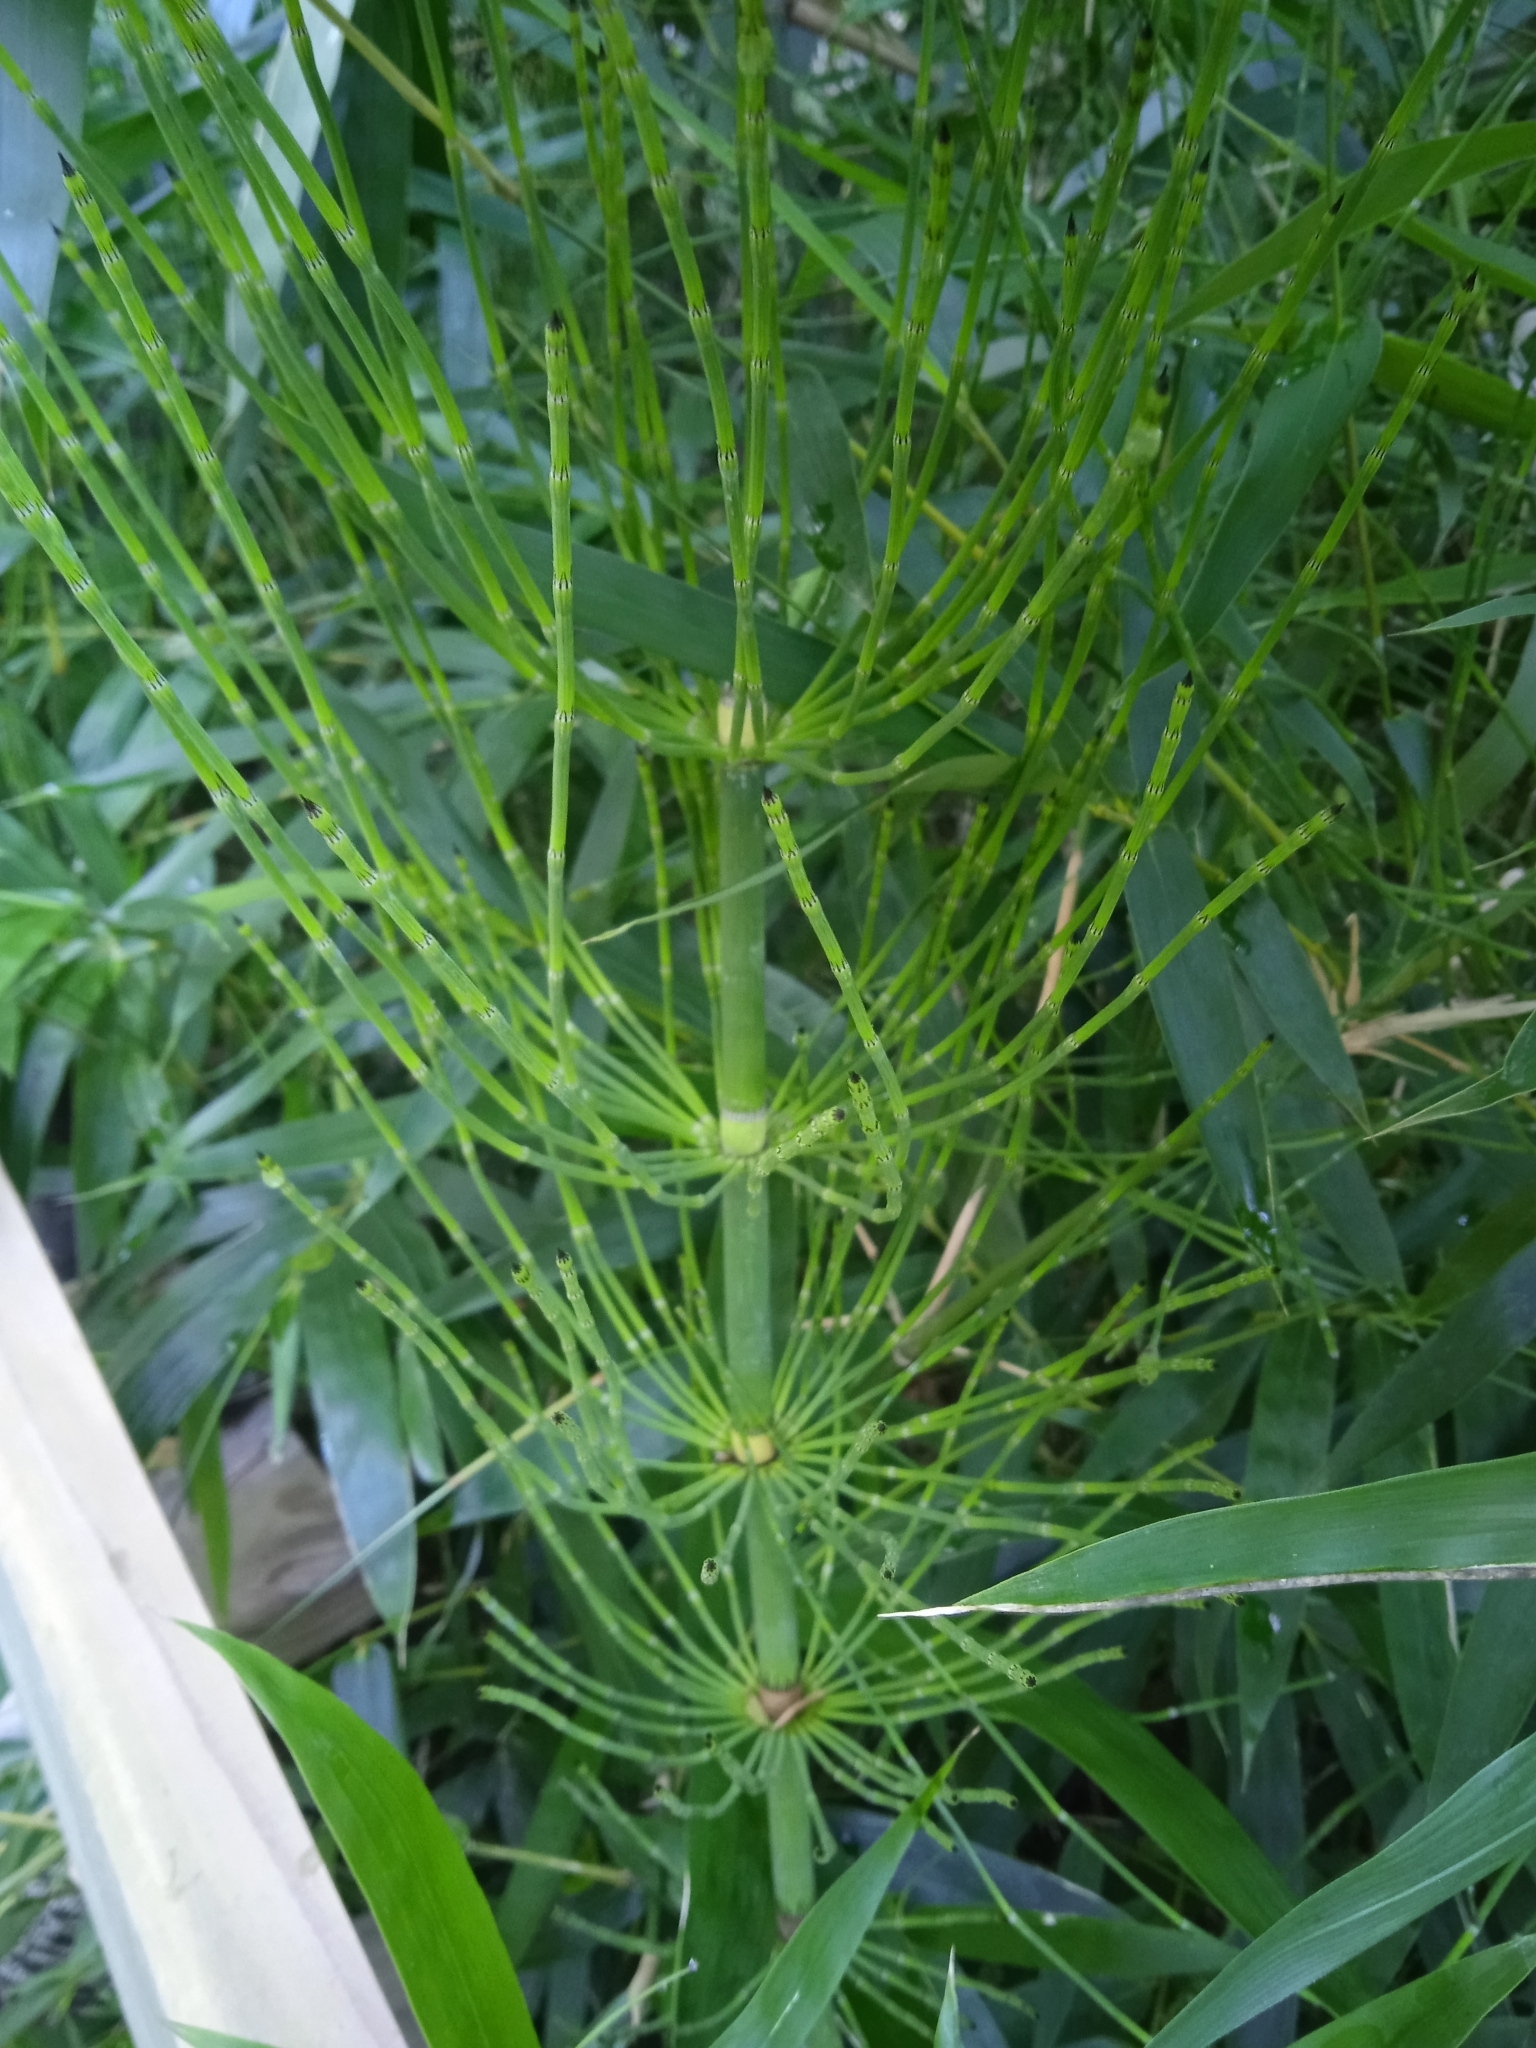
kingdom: Plantae
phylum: Tracheophyta
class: Polypodiopsida
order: Equisetales
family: Equisetaceae
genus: Equisetum
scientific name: Equisetum giganteum
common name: Giant horsetail
